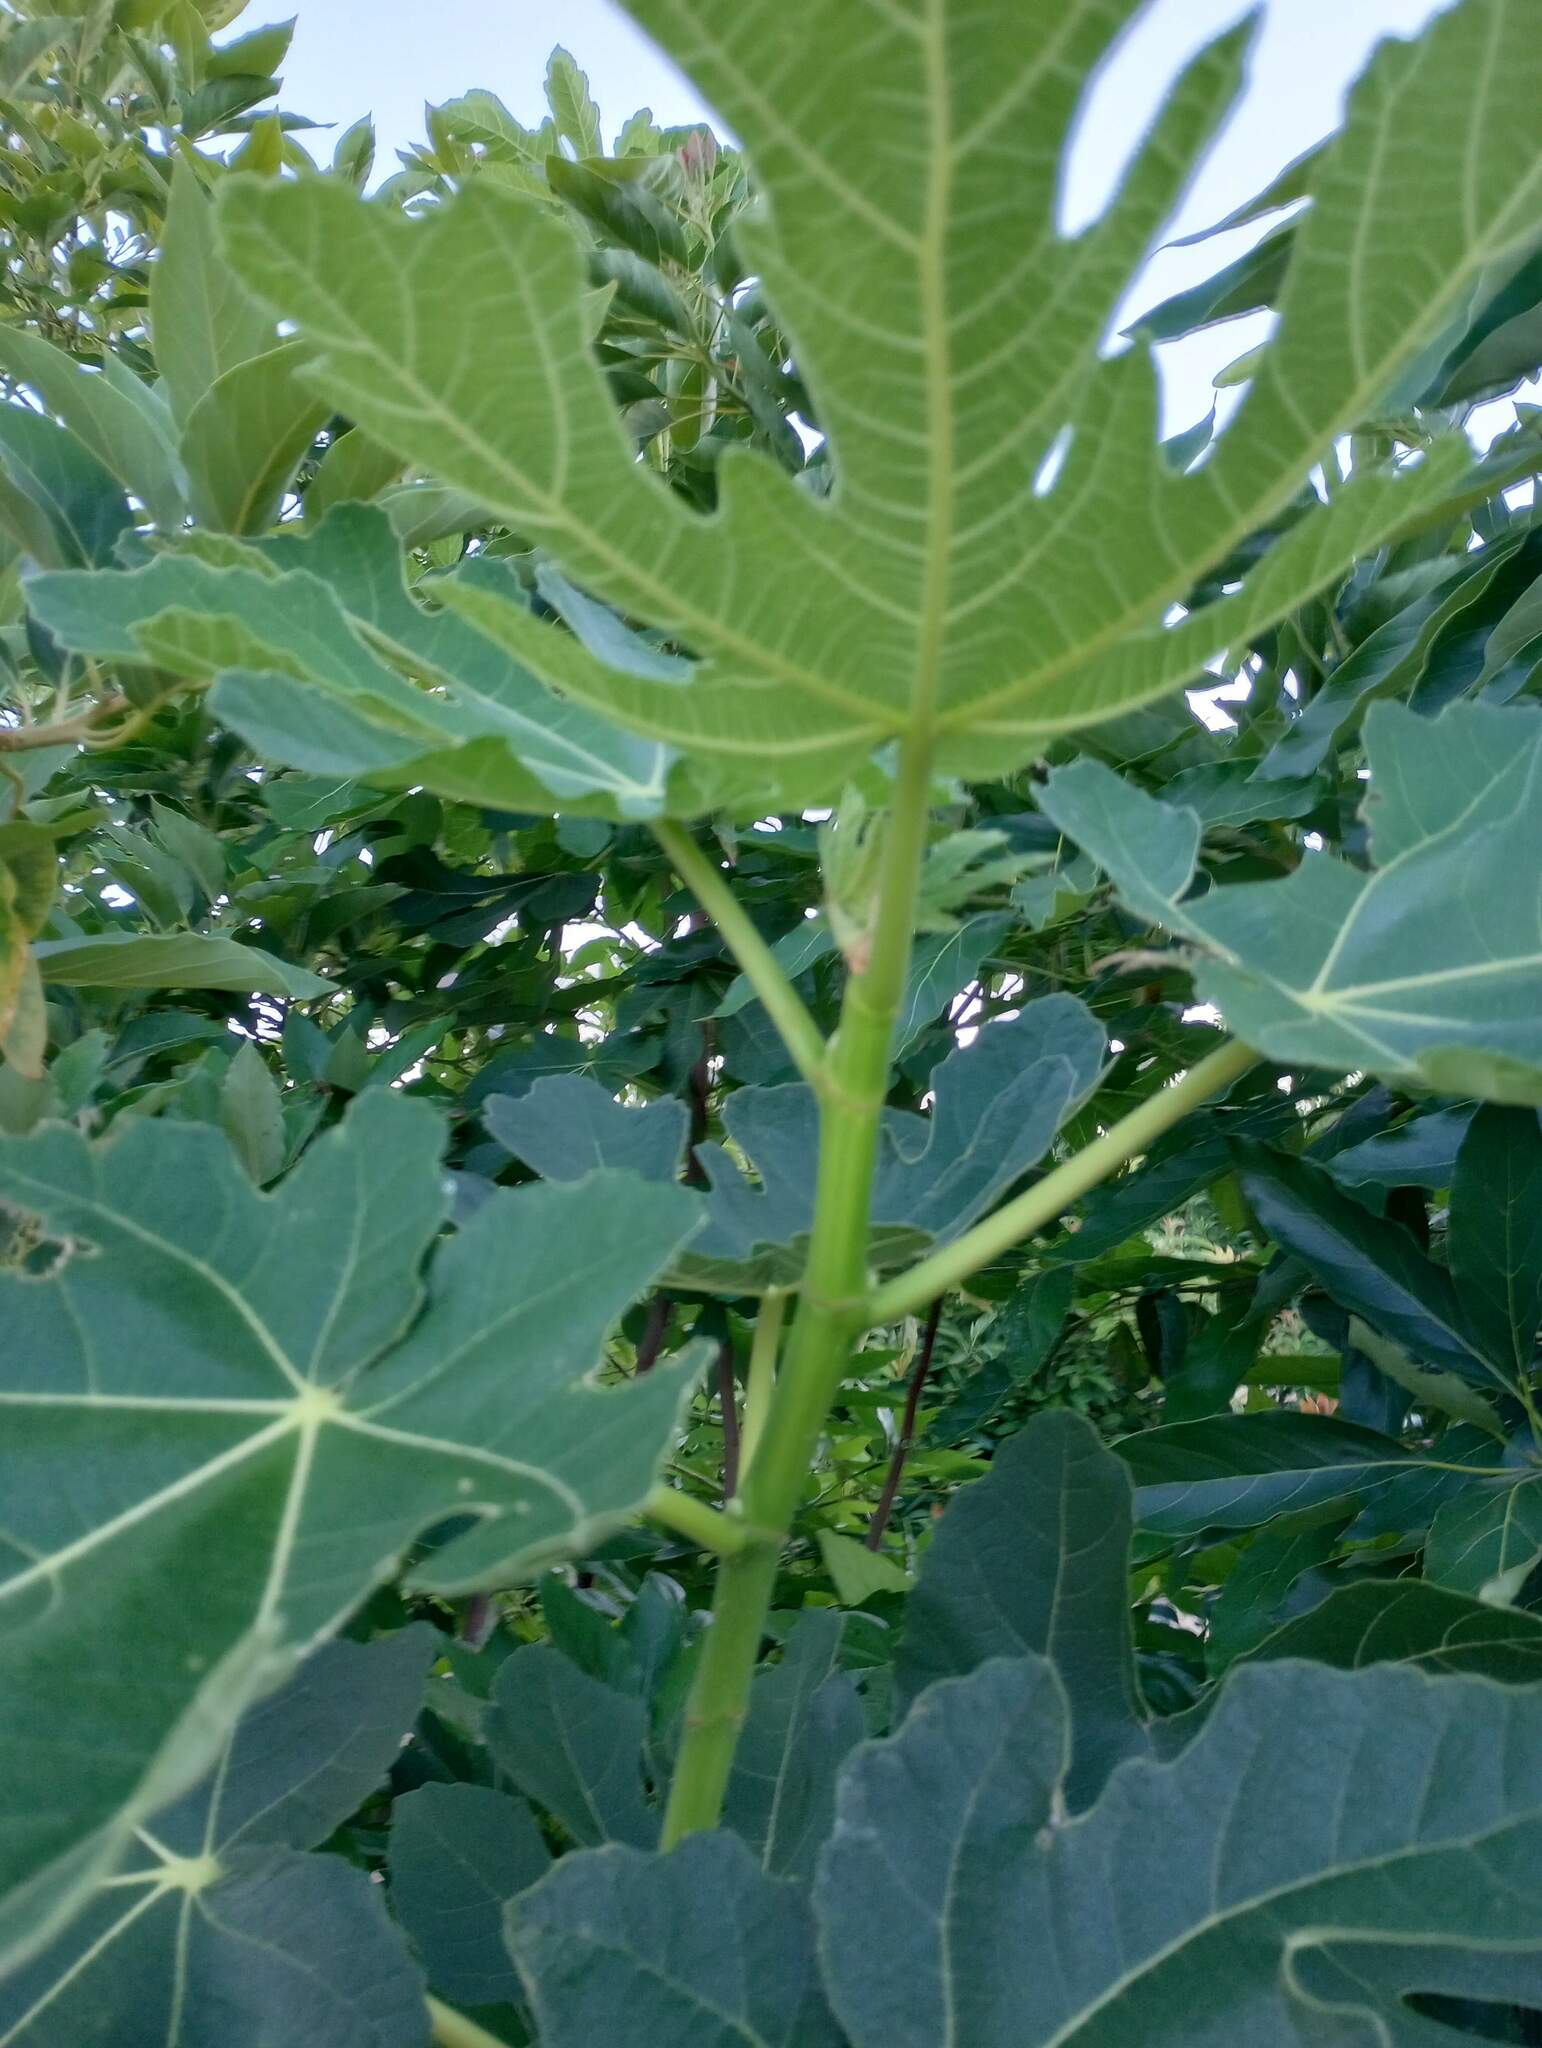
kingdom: Plantae
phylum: Tracheophyta
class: Magnoliopsida
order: Rosales
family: Moraceae
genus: Ficus
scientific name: Ficus carica
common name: Fig
